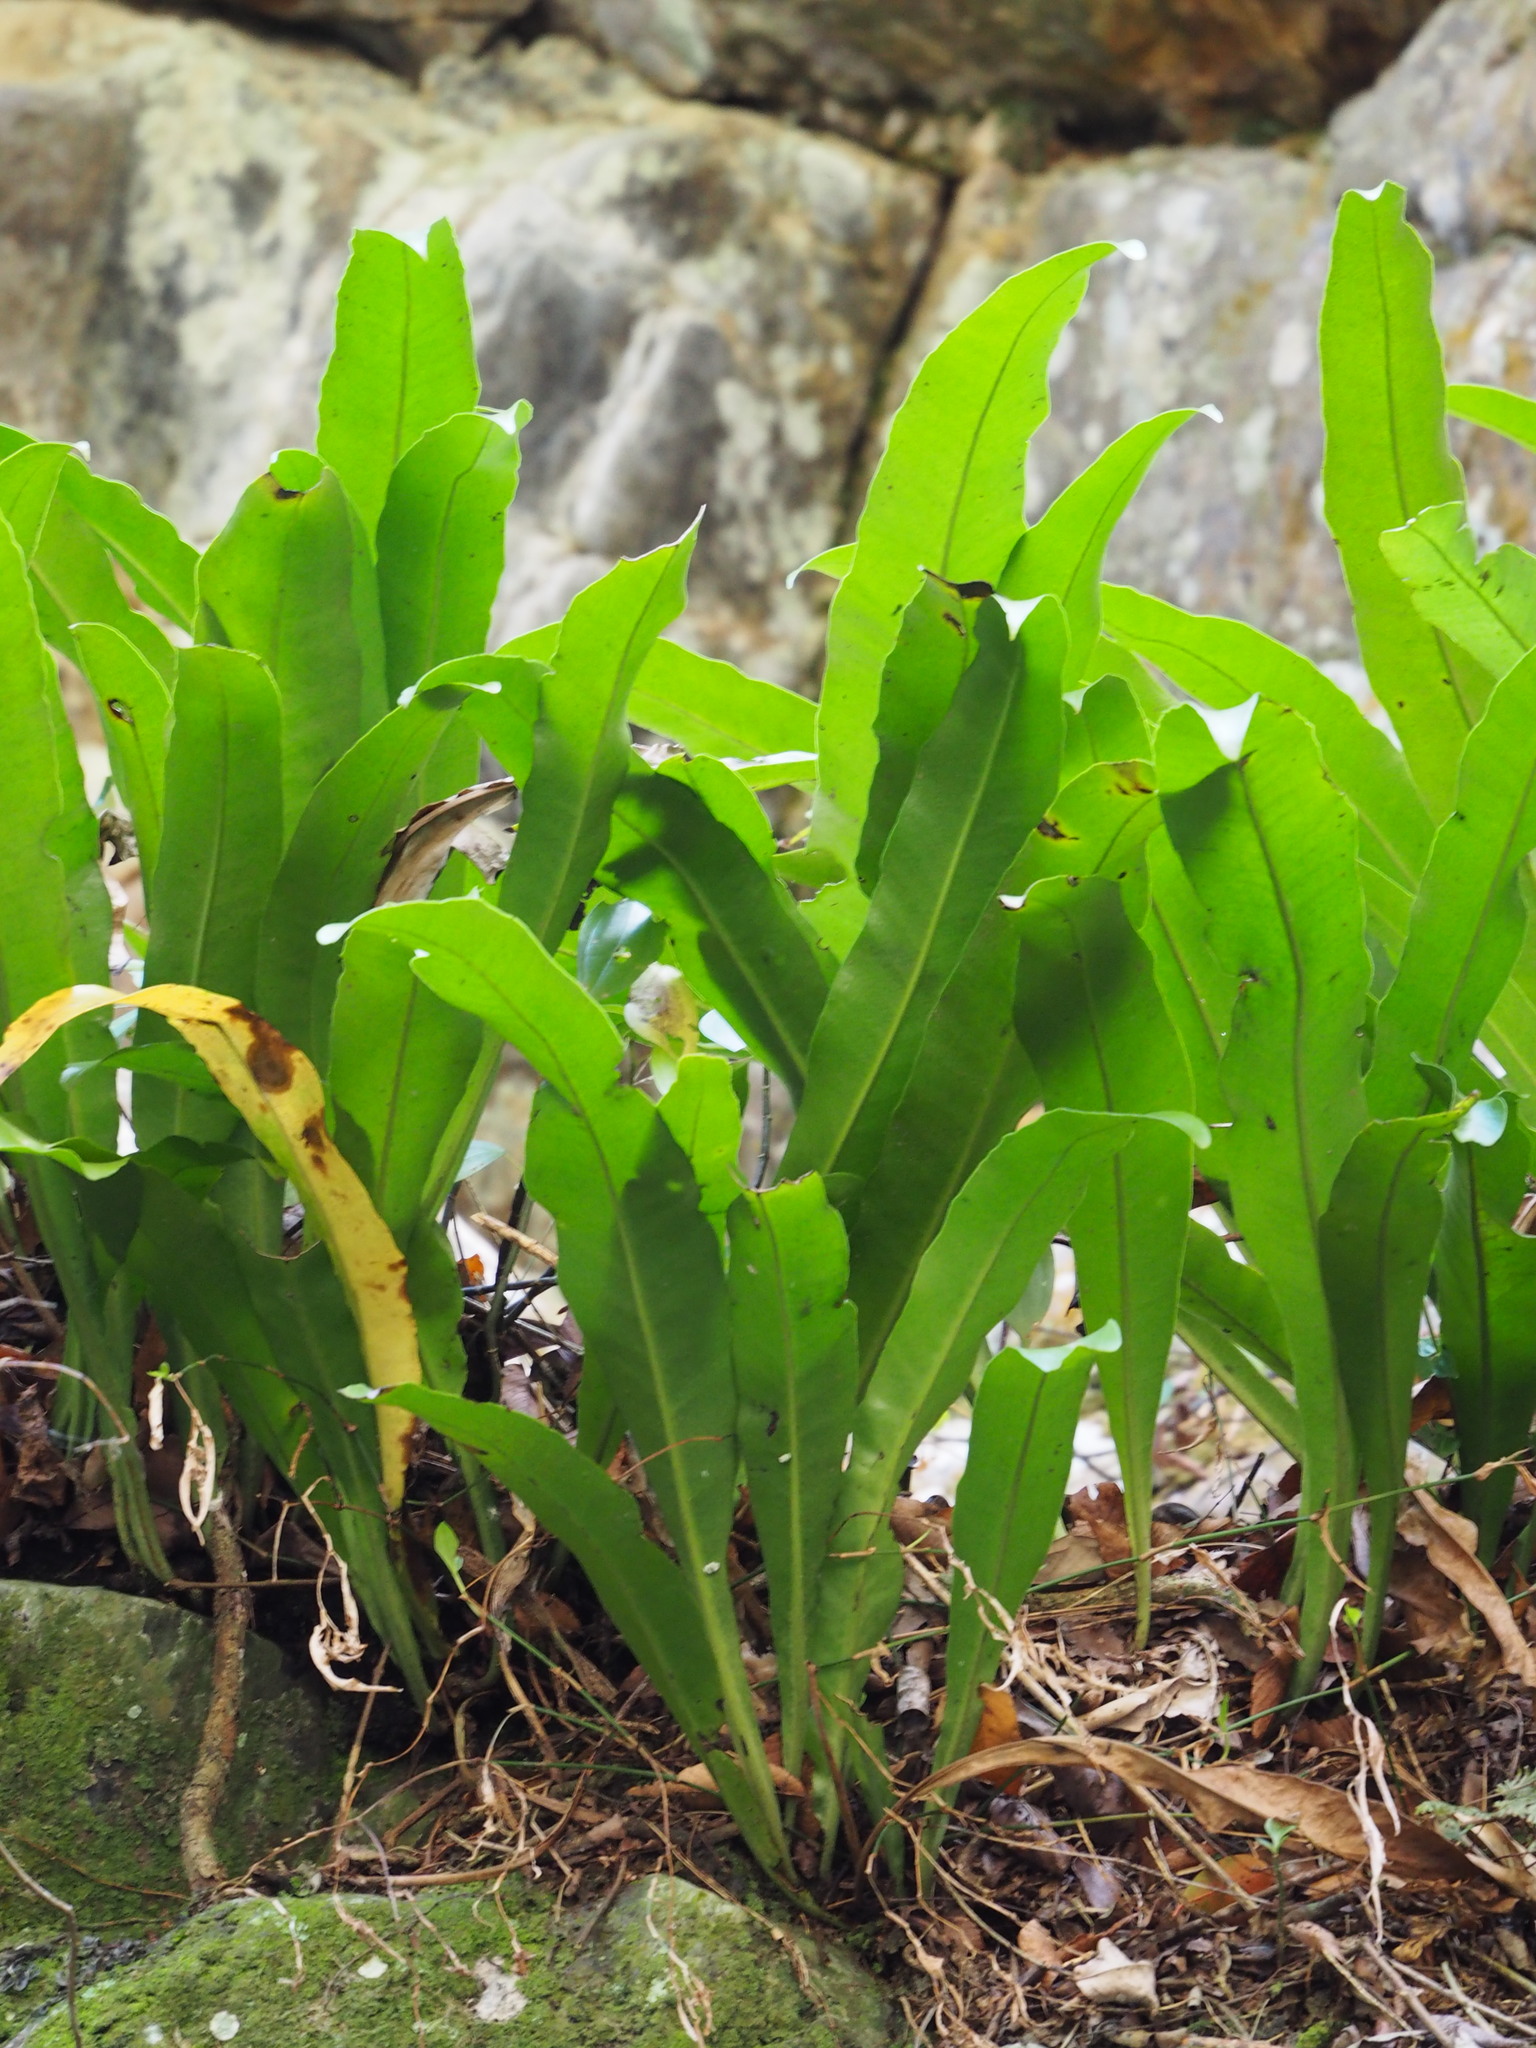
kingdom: Plantae
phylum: Tracheophyta
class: Polypodiopsida
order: Polypodiales
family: Polypodiaceae
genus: Microsorum
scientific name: Microsorum punctatum
